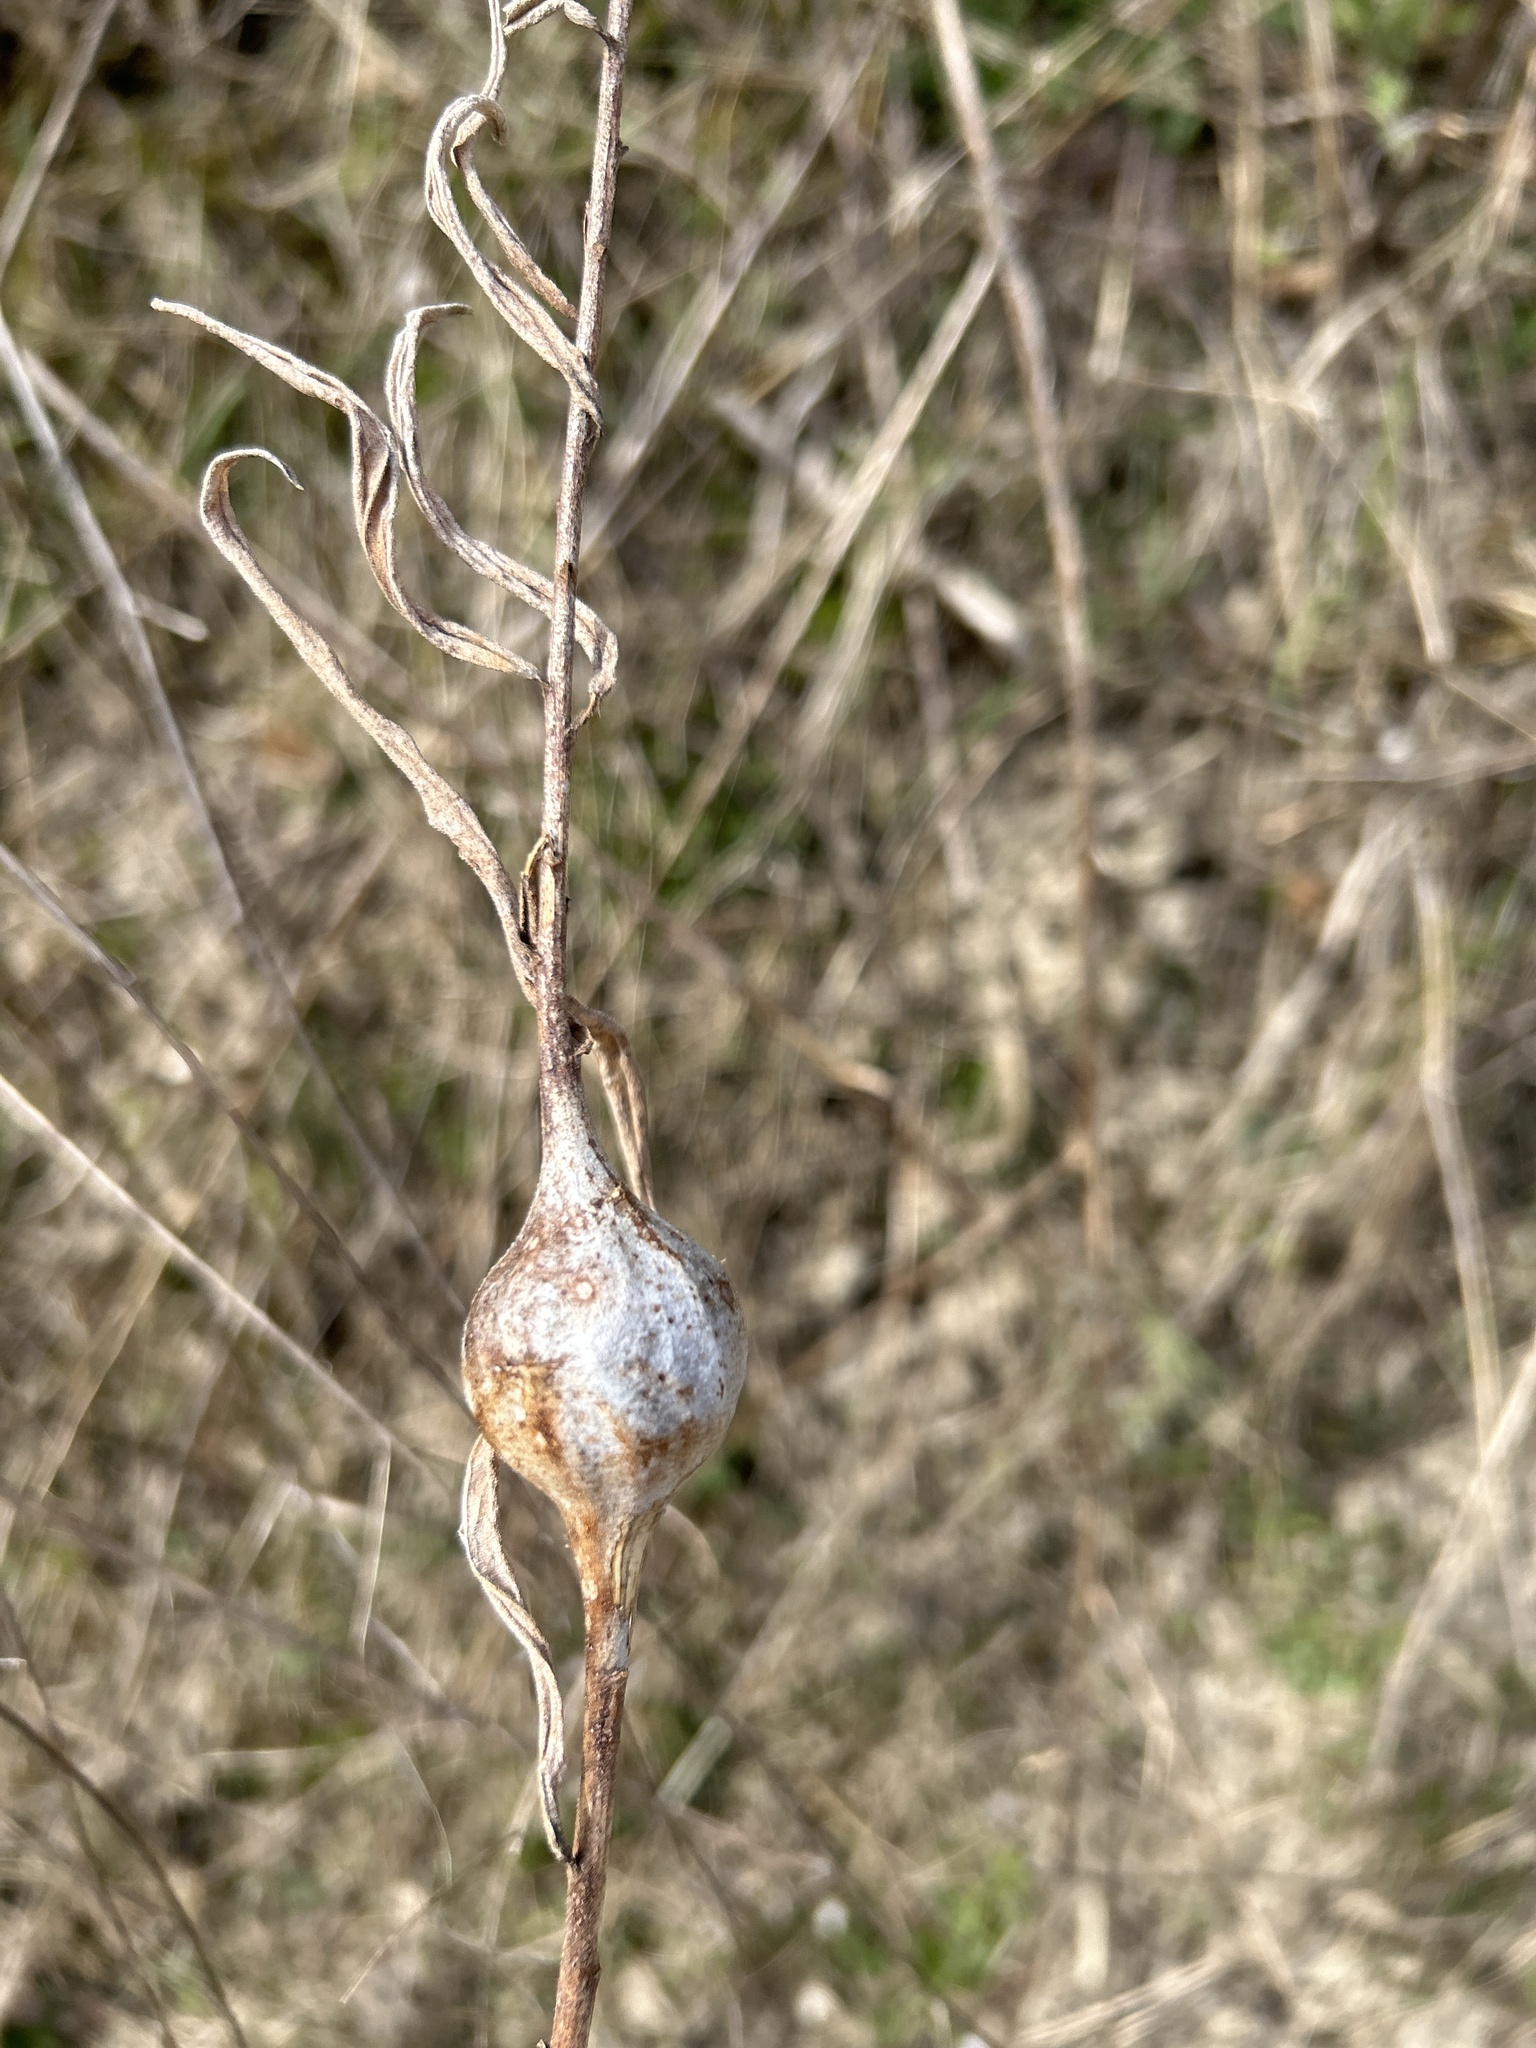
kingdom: Animalia
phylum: Arthropoda
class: Insecta
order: Diptera
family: Tephritidae
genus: Eurosta
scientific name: Eurosta solidaginis
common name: Goldenrod gall fly
